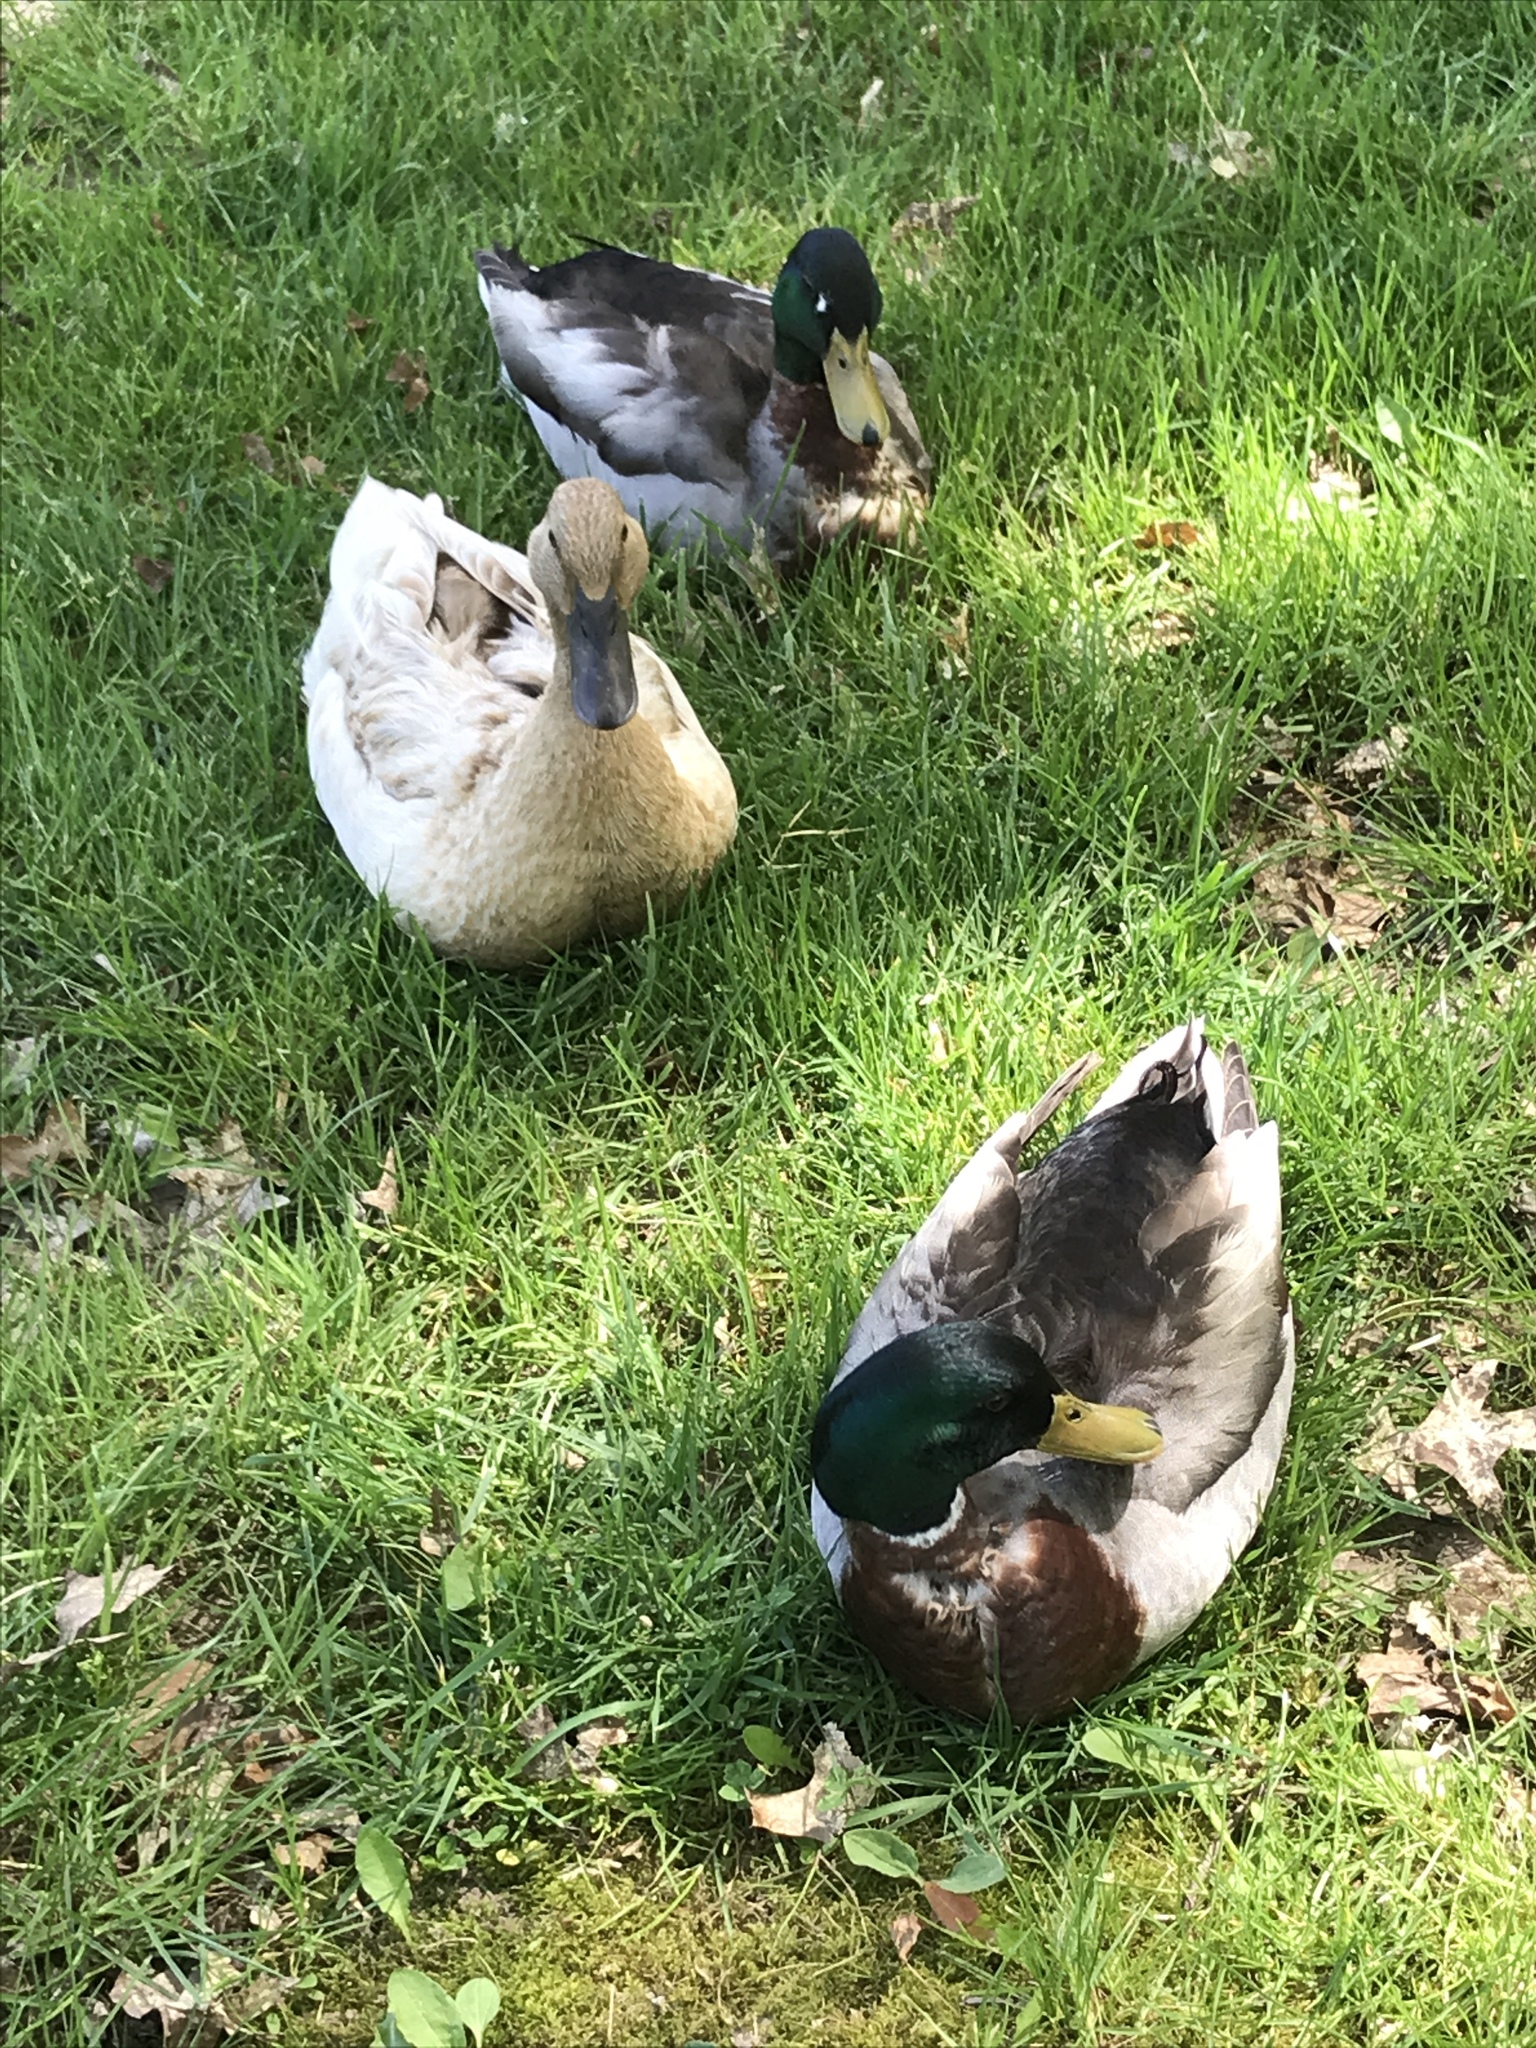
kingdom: Animalia
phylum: Chordata
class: Aves
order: Anseriformes
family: Anatidae
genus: Anas
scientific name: Anas platyrhynchos
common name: Mallard
